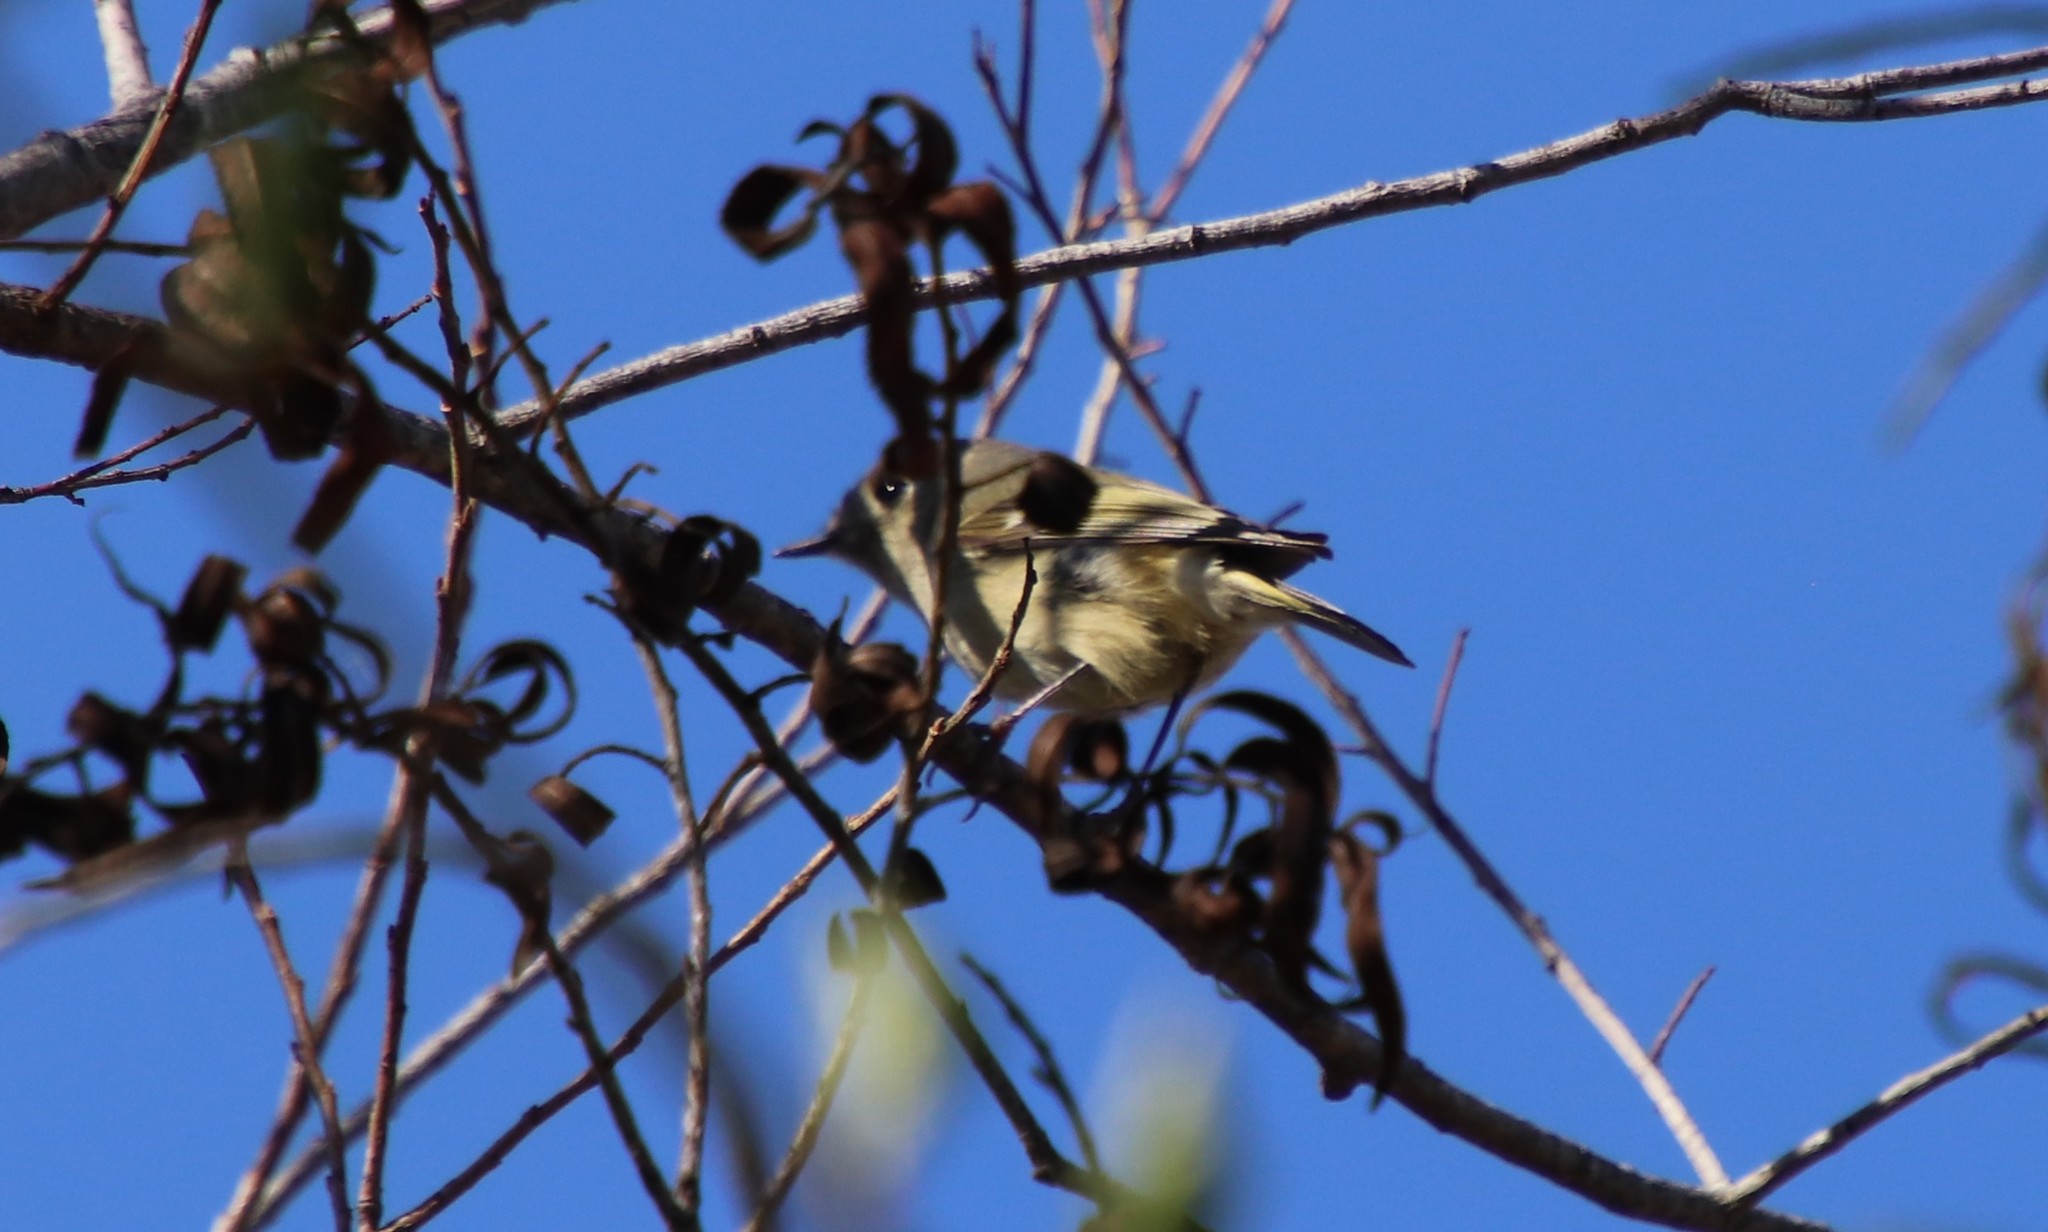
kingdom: Animalia
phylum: Chordata
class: Aves
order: Passeriformes
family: Regulidae
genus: Regulus
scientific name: Regulus calendula
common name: Ruby-crowned kinglet
